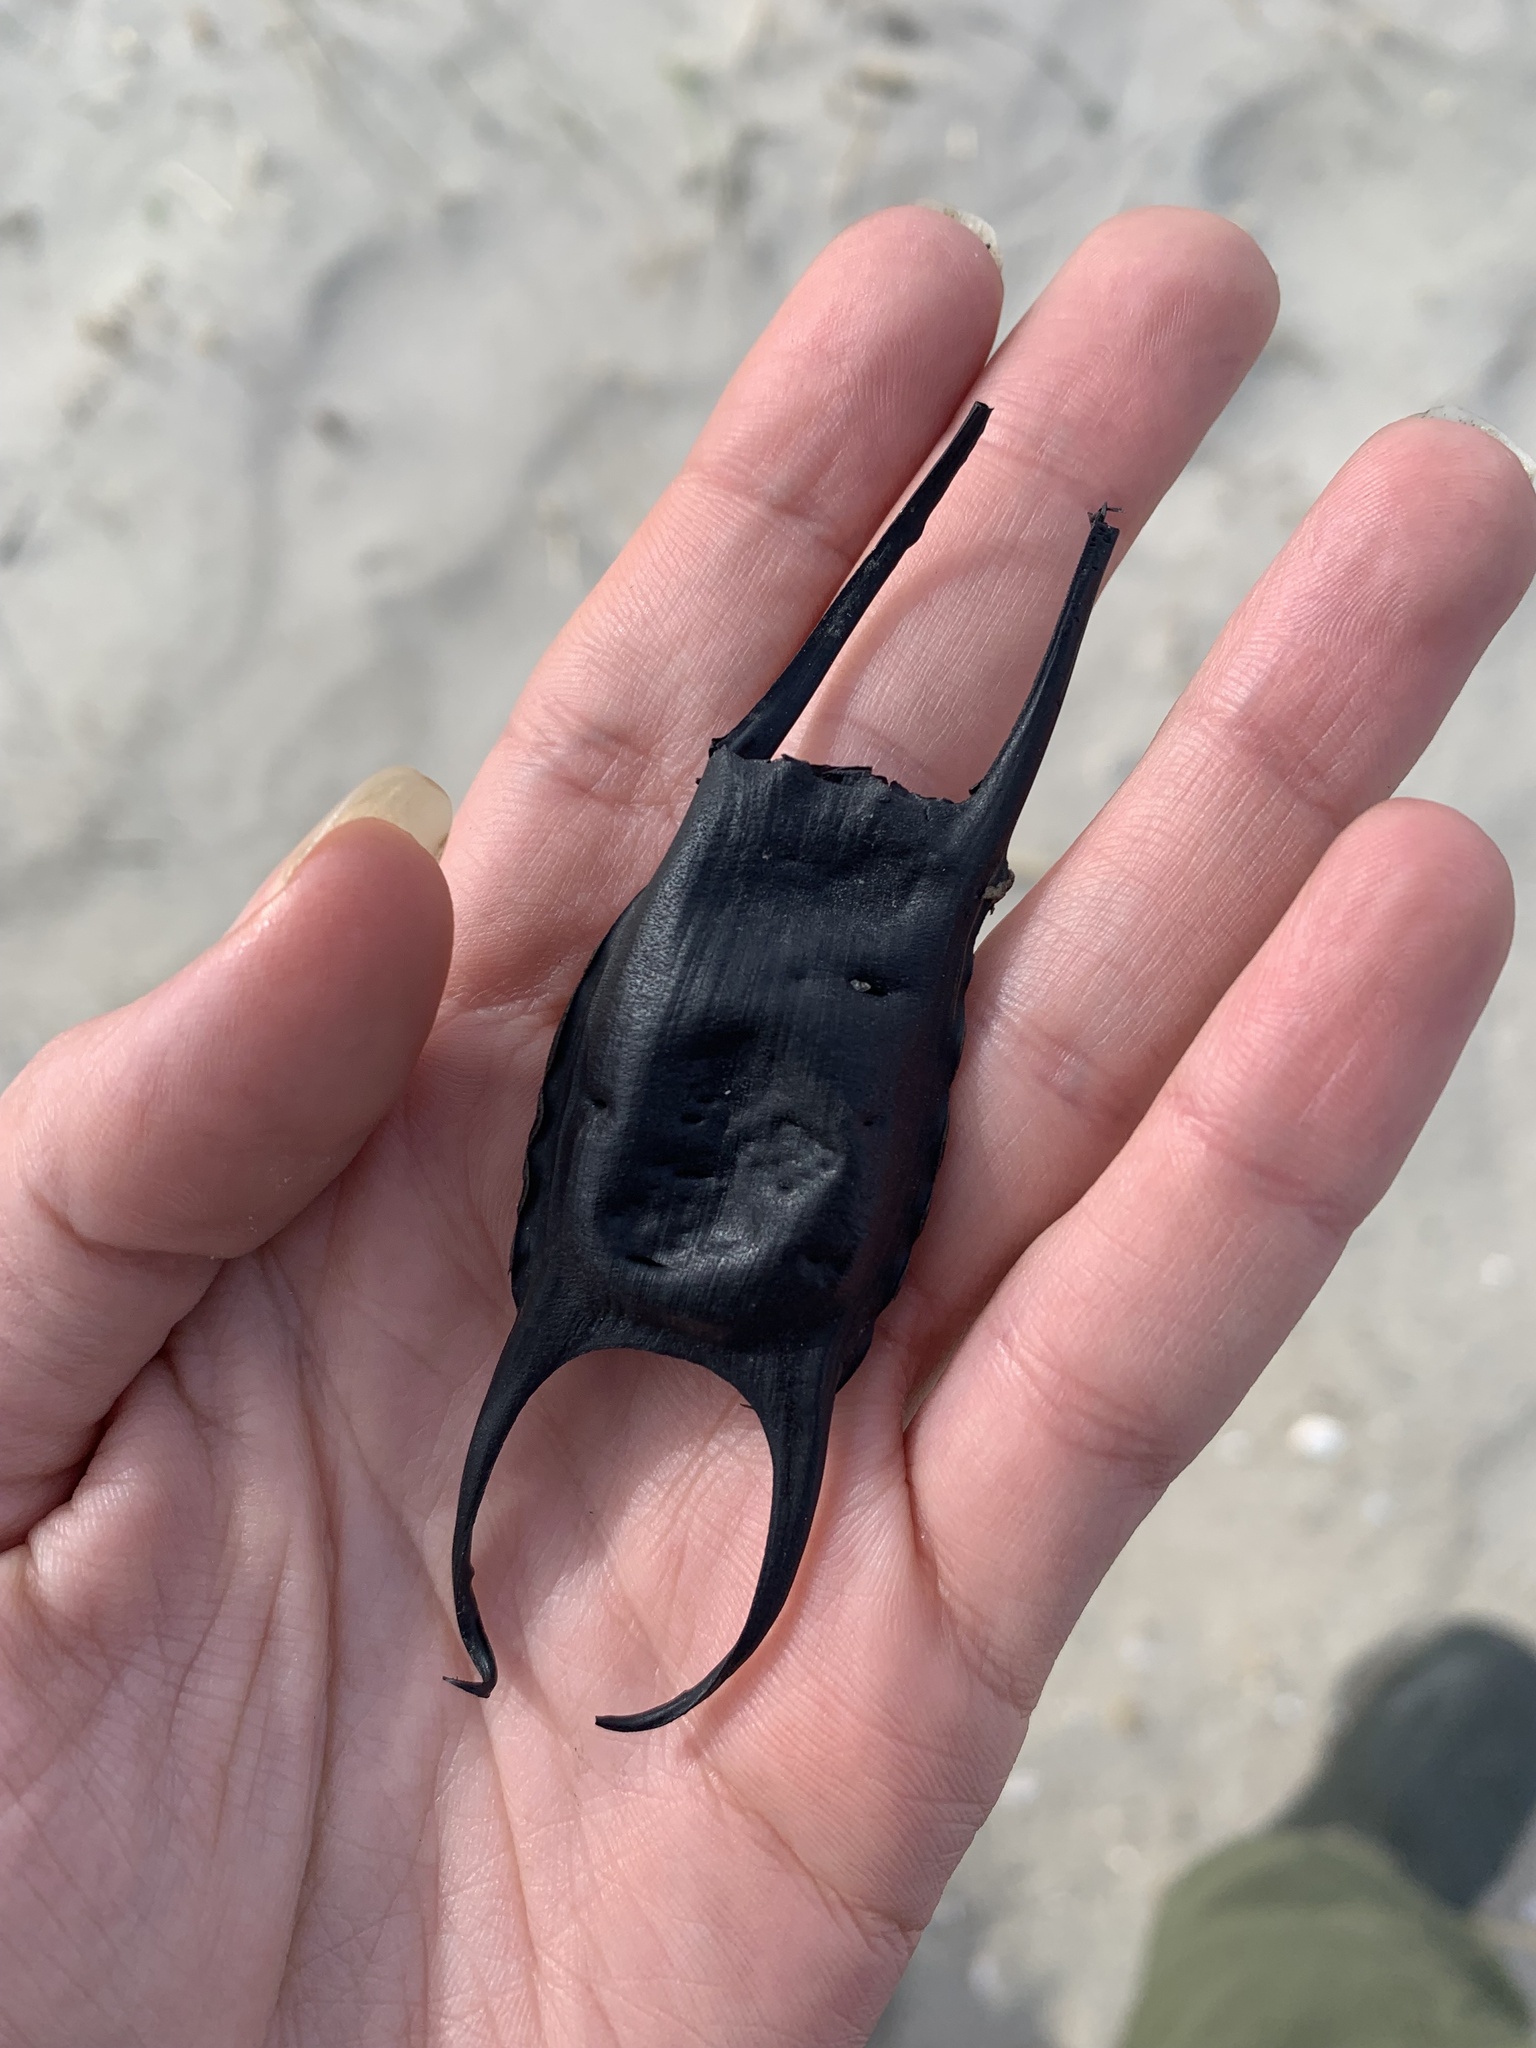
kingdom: Animalia
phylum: Chordata
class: Elasmobranchii
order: Rajiformes
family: Rajidae
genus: Leucoraja
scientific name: Leucoraja erinacea
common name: Little skate
